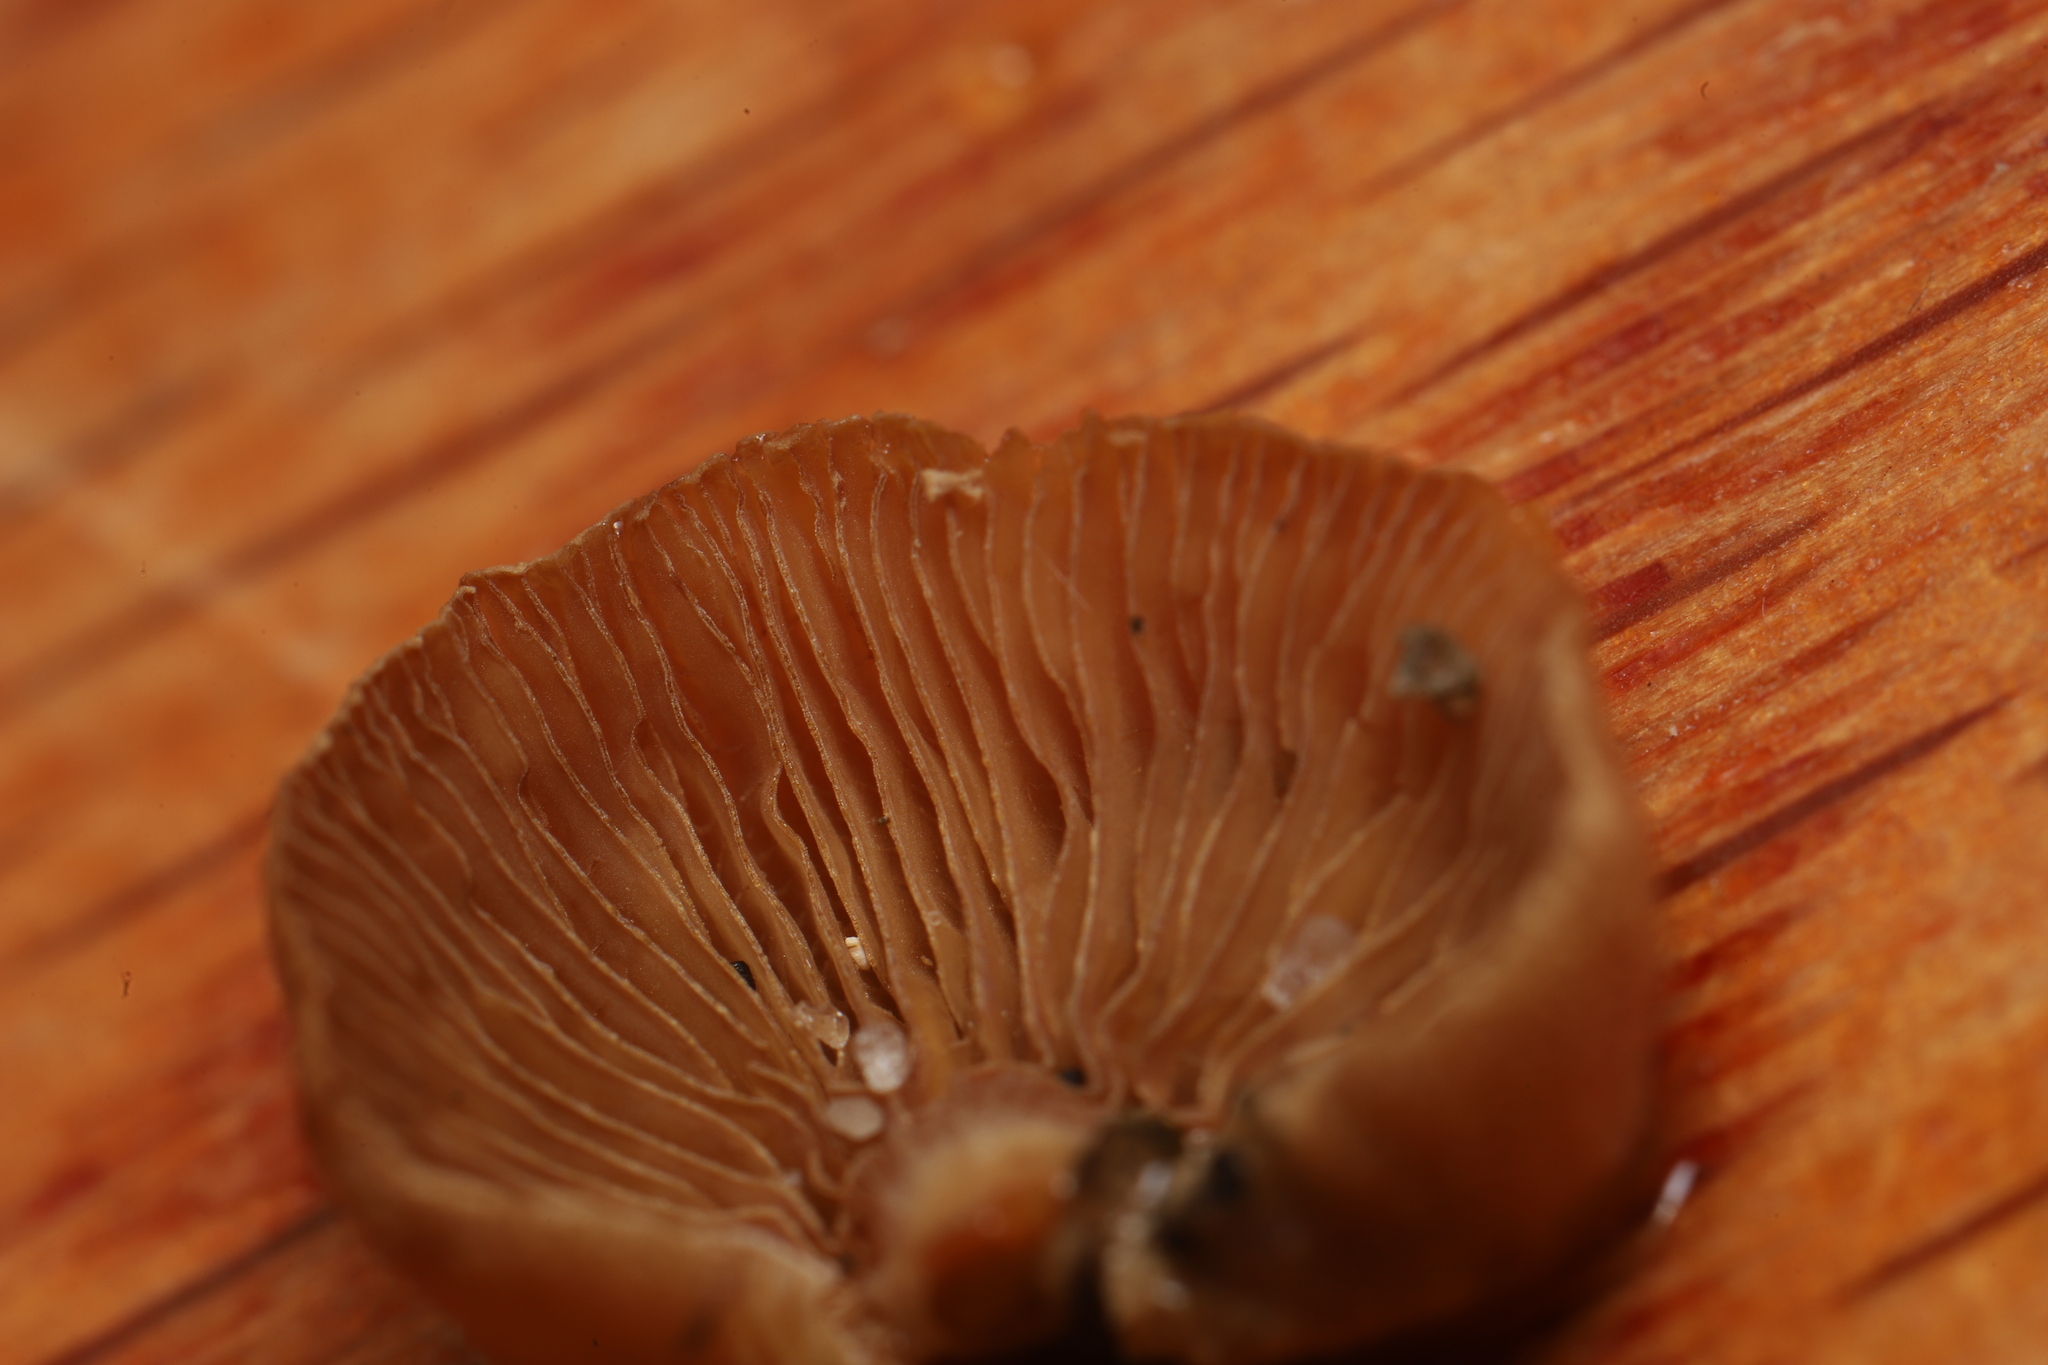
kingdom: Fungi
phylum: Basidiomycota
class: Agaricomycetes
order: Agaricales
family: Mycenaceae
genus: Panellus
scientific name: Panellus stipticus
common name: Bitter oysterling
